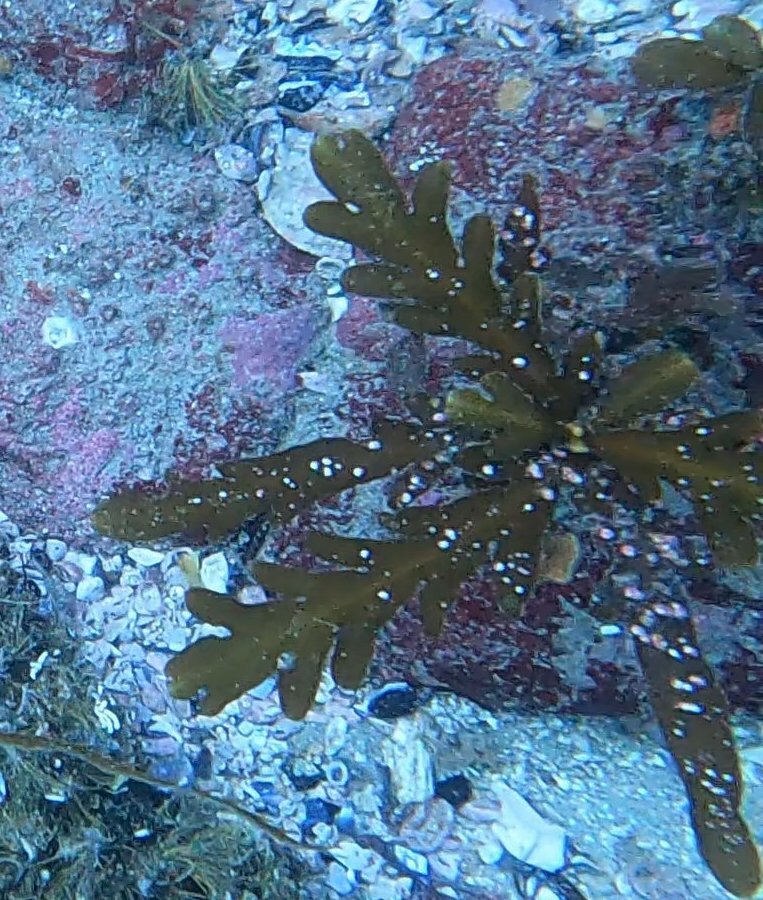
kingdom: Chromista
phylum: Ochrophyta
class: Phaeophyceae
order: Fucales
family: Sargassaceae
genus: Stephanocystis
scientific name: Stephanocystis
